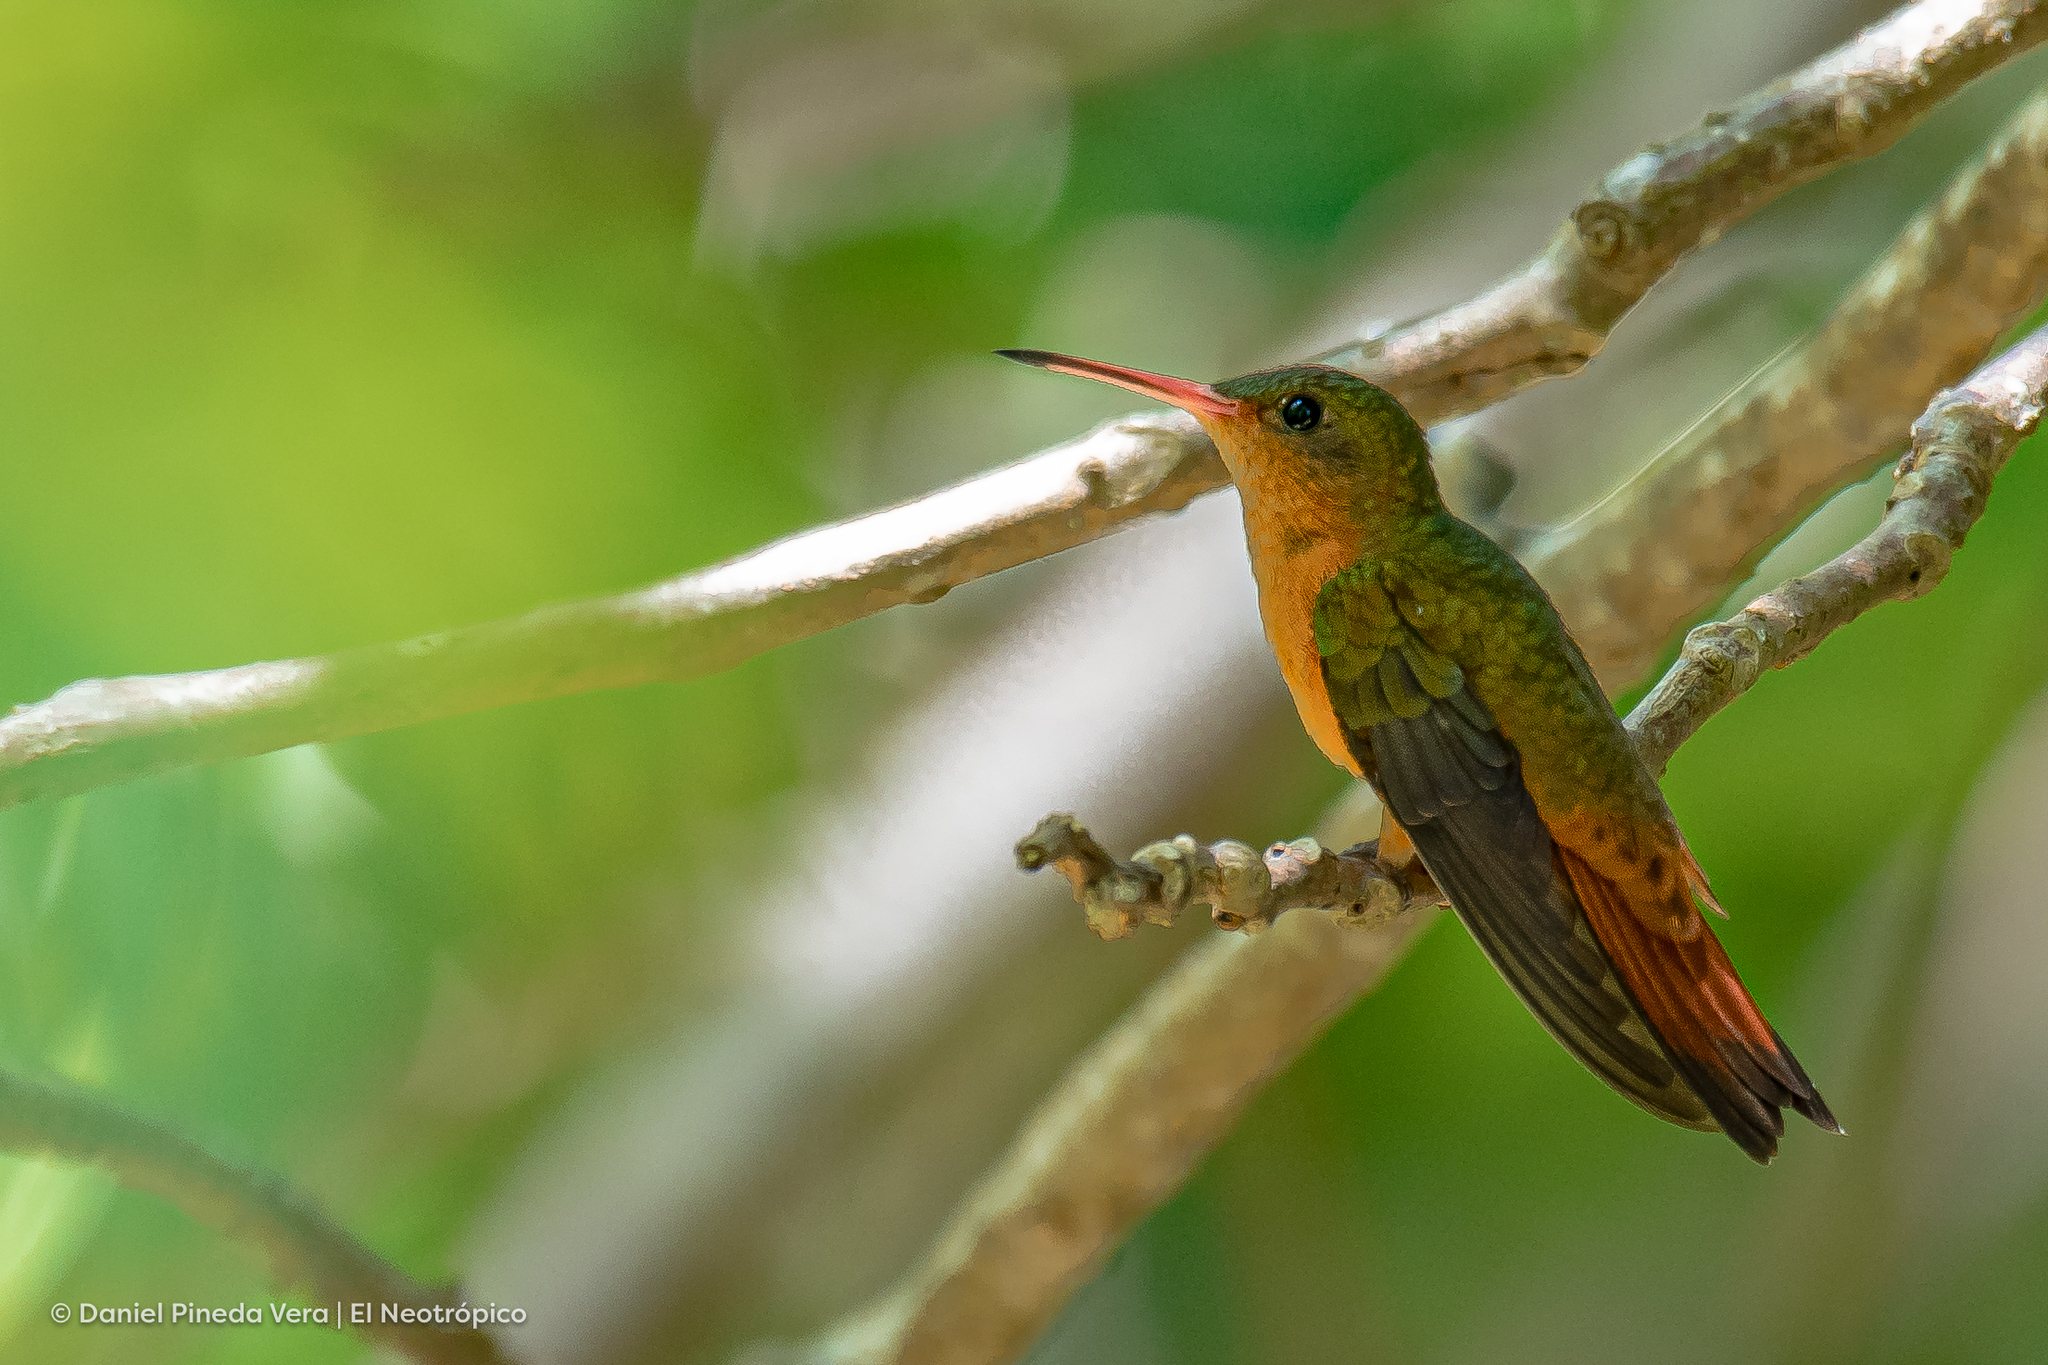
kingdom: Animalia
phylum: Chordata
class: Aves
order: Apodiformes
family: Trochilidae
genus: Amazilia
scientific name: Amazilia rutila
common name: Cinnamon hummingbird
